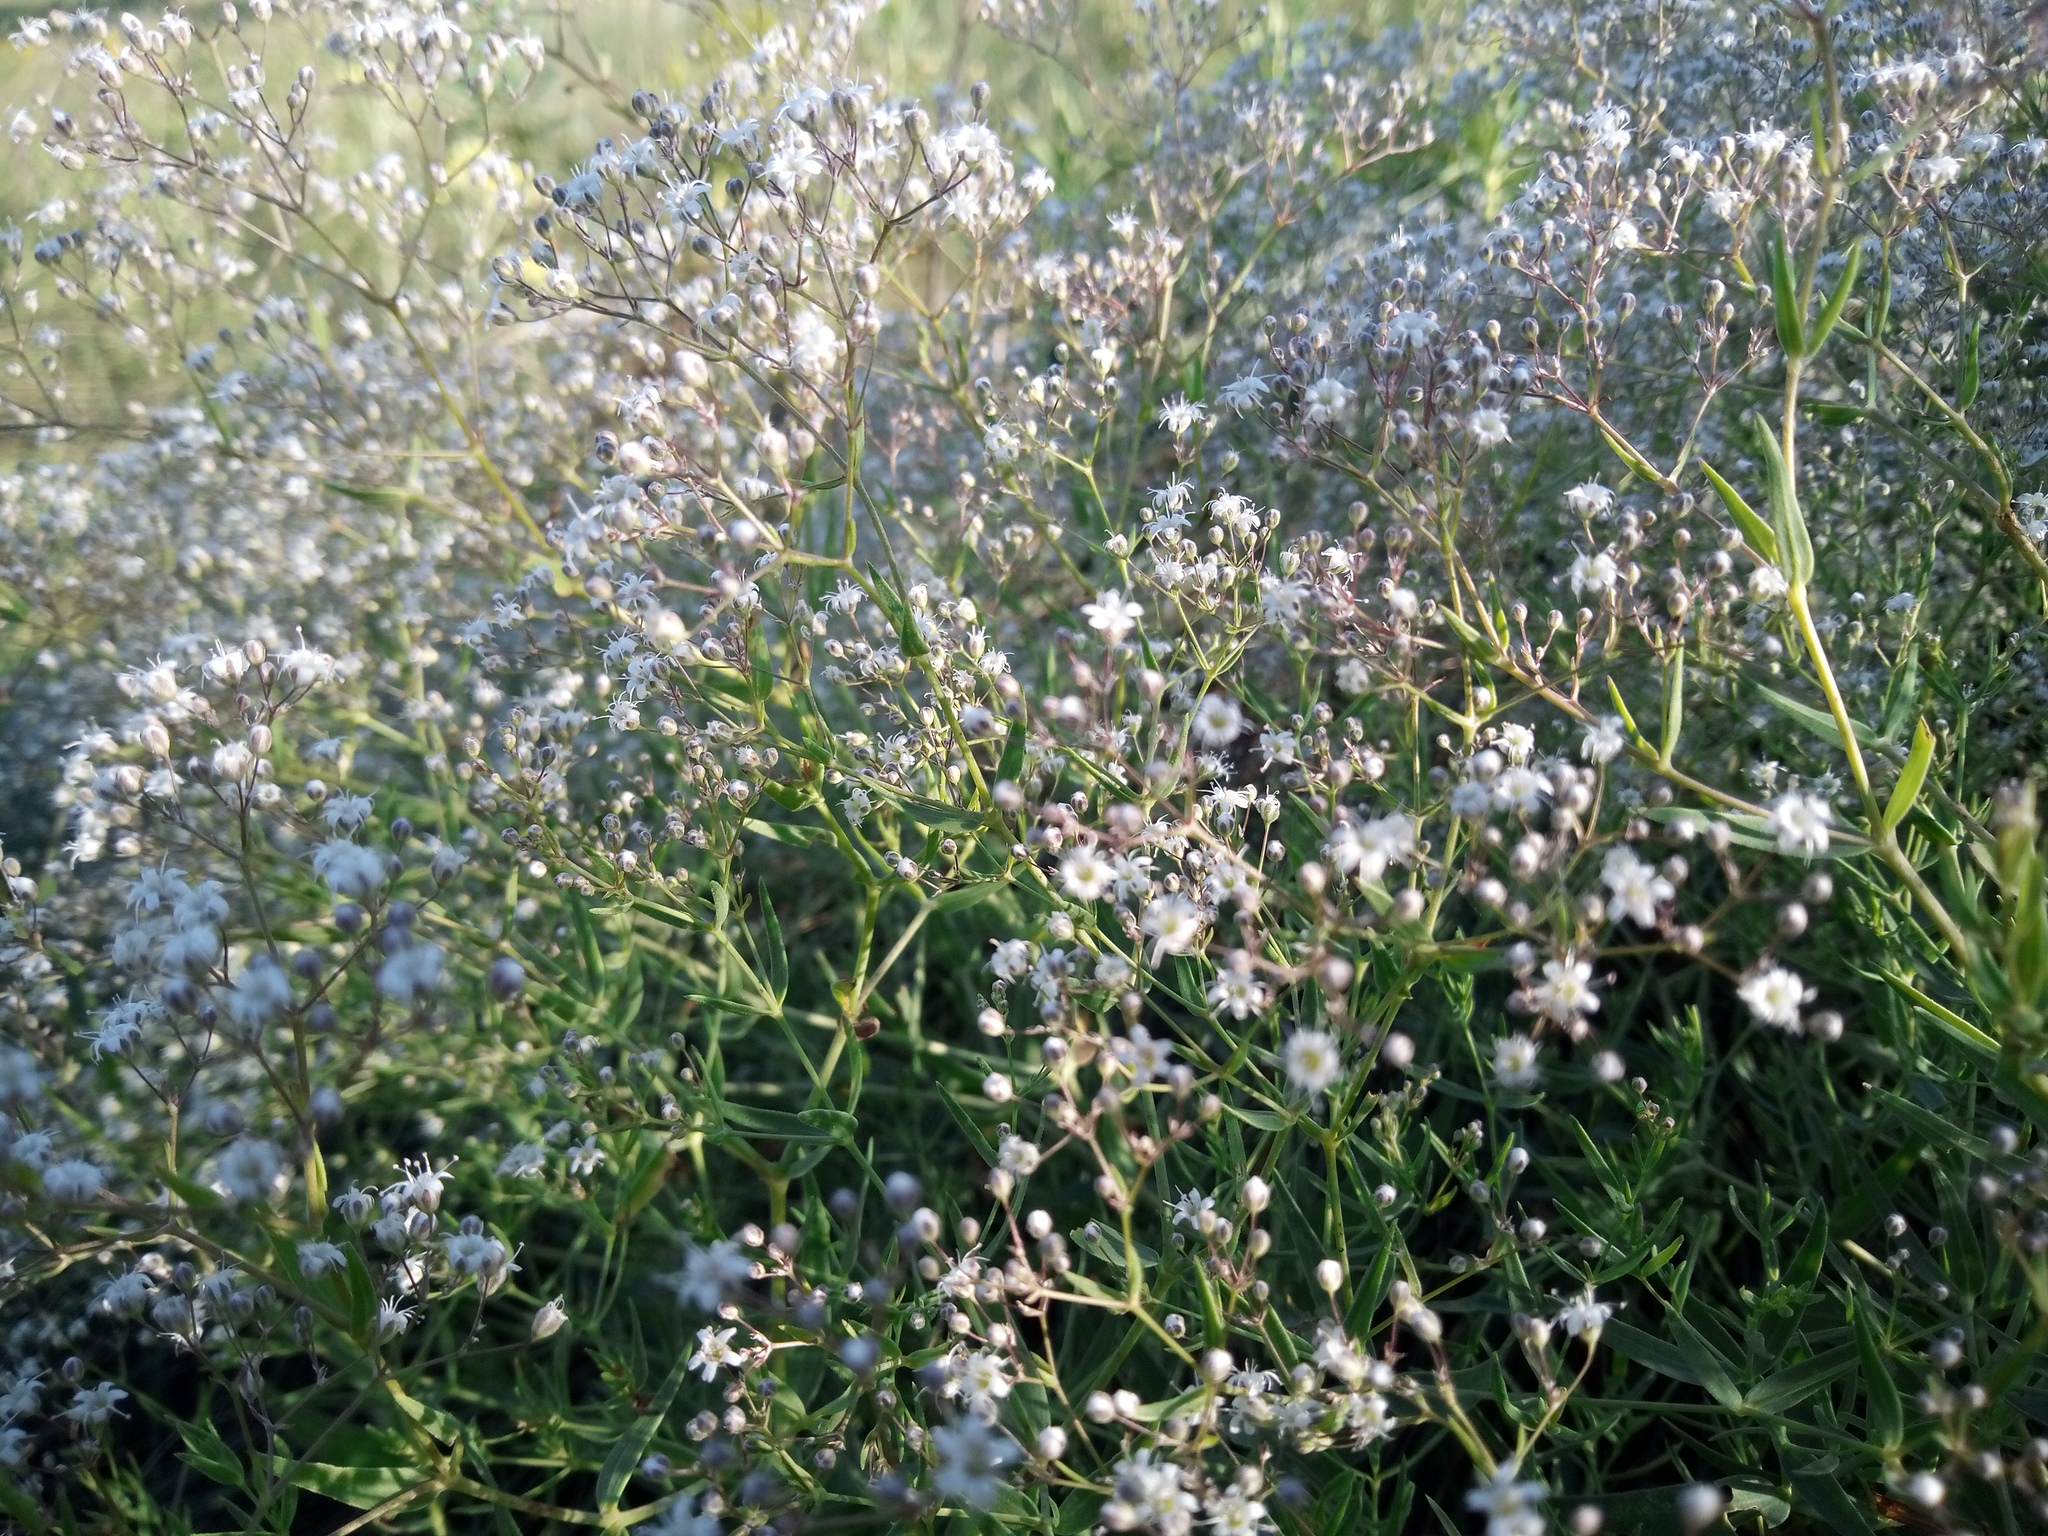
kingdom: Plantae
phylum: Tracheophyta
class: Magnoliopsida
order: Caryophyllales
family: Caryophyllaceae
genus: Gypsophila
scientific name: Gypsophila paniculata
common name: Baby's-breath
